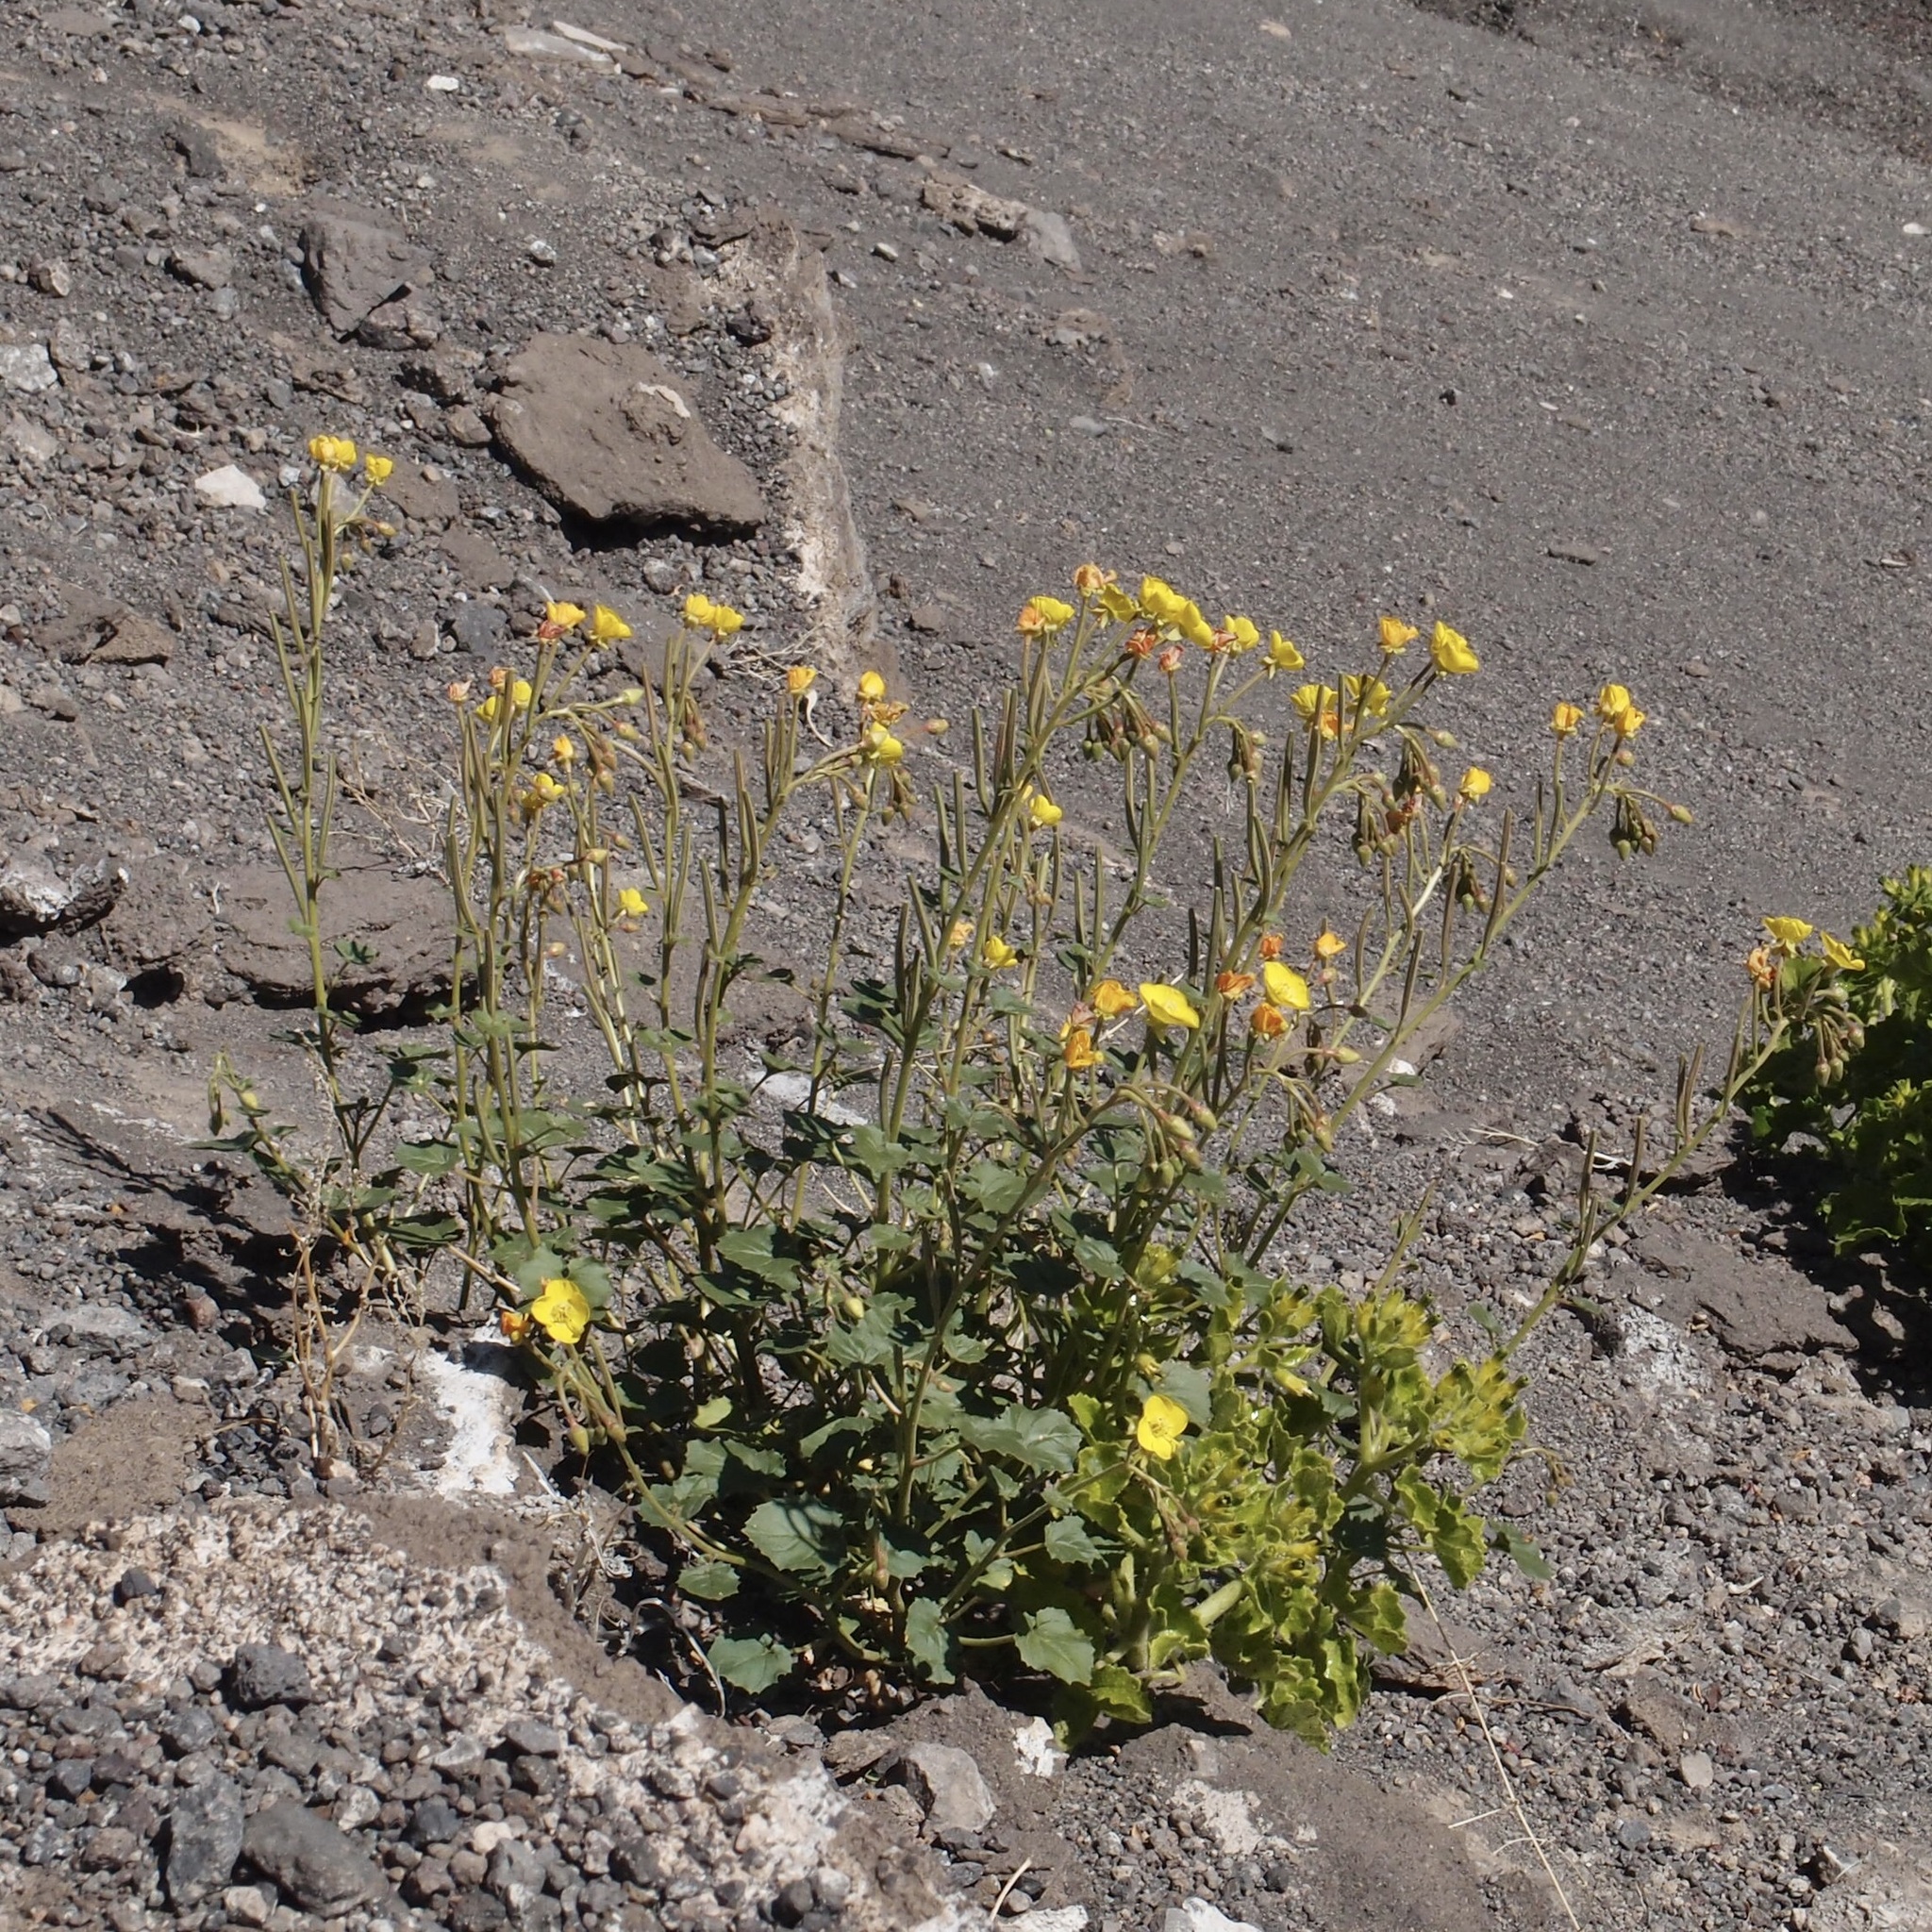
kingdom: Plantae
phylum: Tracheophyta
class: Magnoliopsida
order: Myrtales
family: Onagraceae
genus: Chylismia
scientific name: Chylismia cardiophylla
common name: Heartleaf suncup
